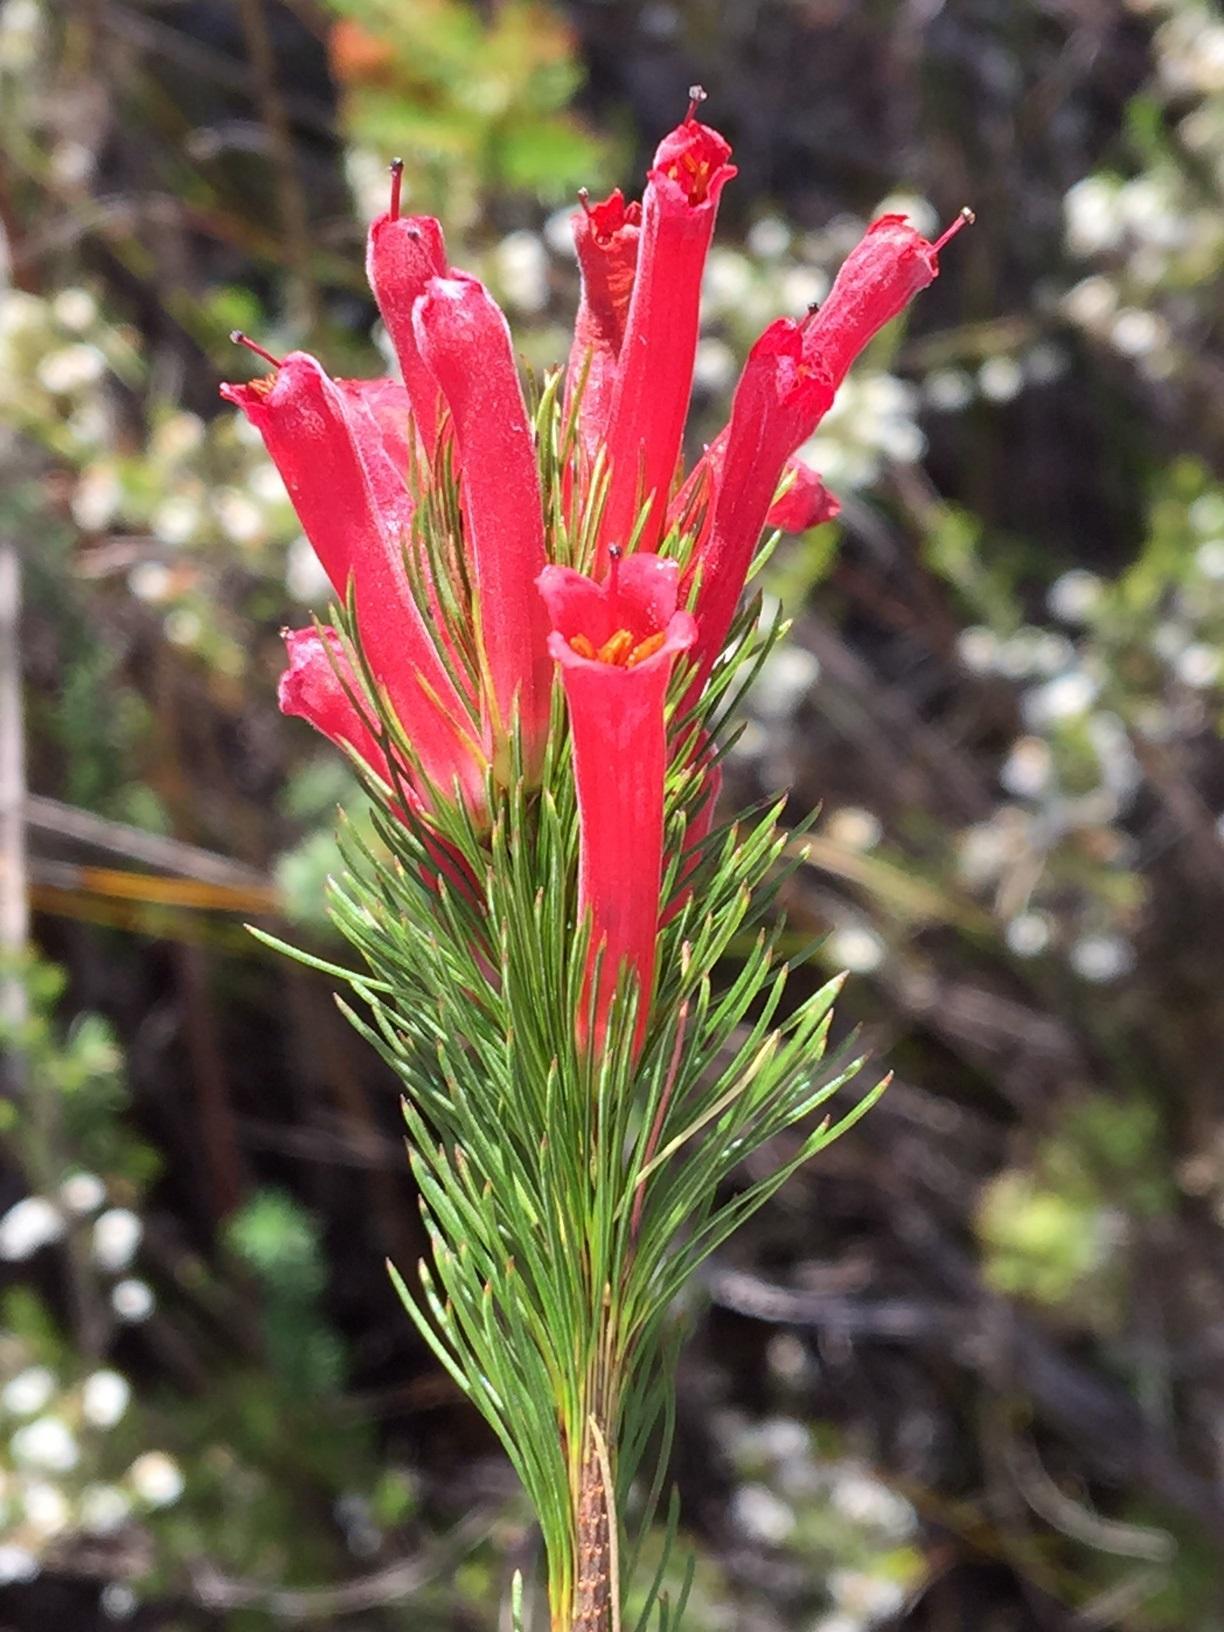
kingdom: Plantae
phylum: Tracheophyta
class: Magnoliopsida
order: Ericales
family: Ericaceae
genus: Erica
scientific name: Erica vestita
